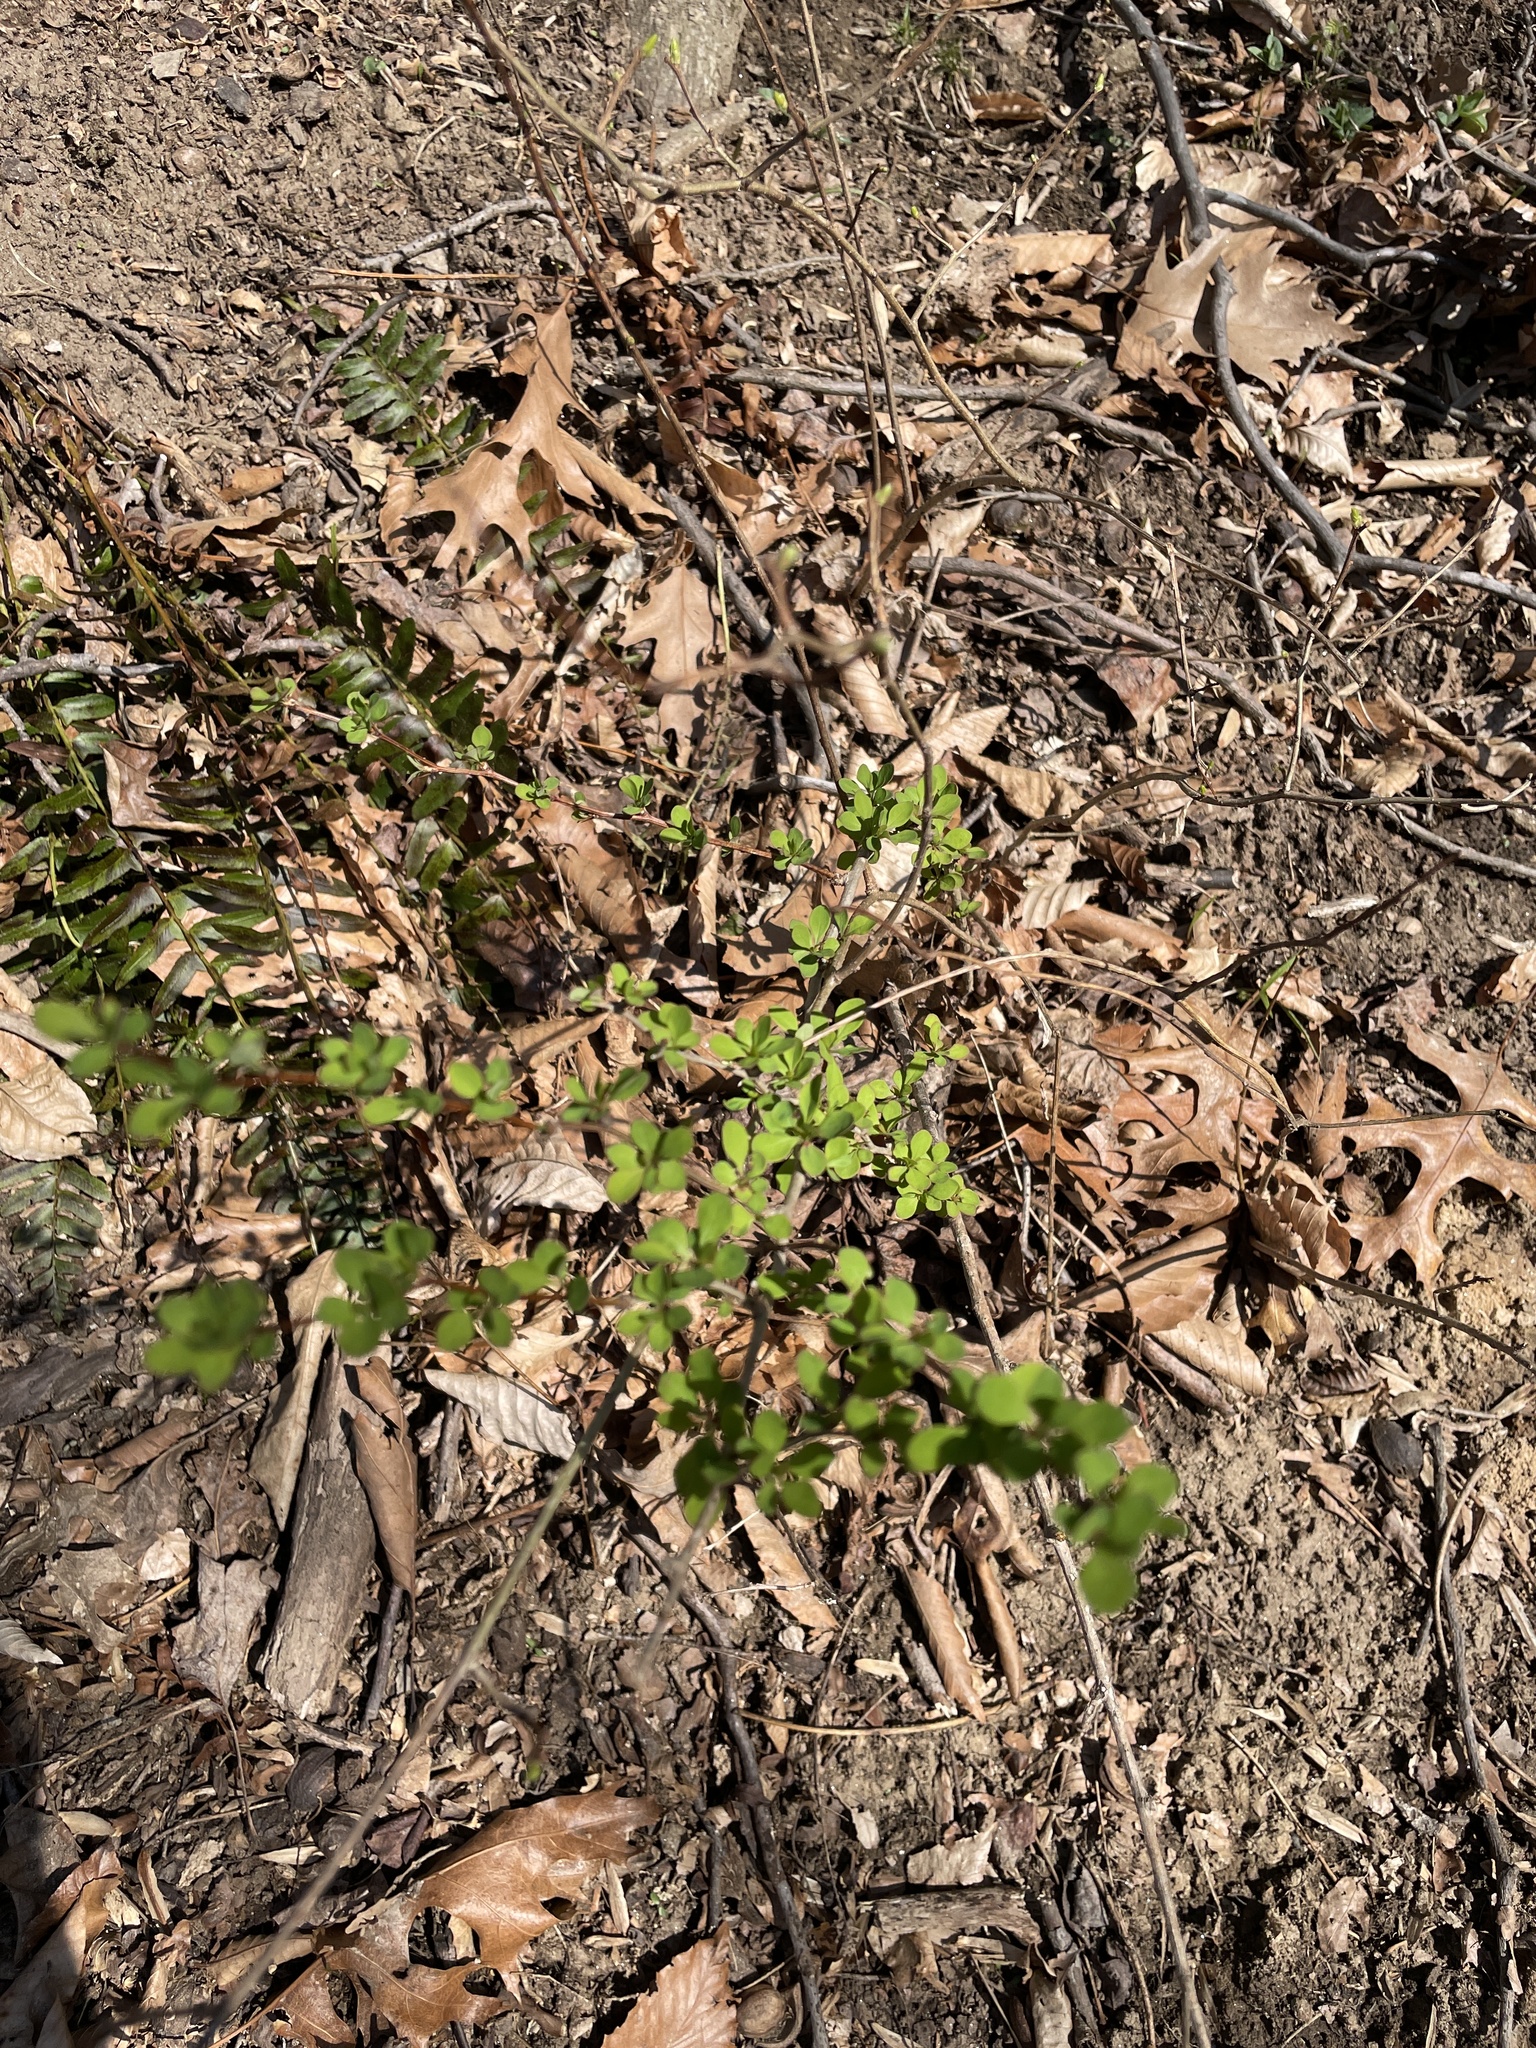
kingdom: Plantae
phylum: Tracheophyta
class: Magnoliopsida
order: Ranunculales
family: Berberidaceae
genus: Berberis
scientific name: Berberis thunbergii
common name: Japanese barberry
